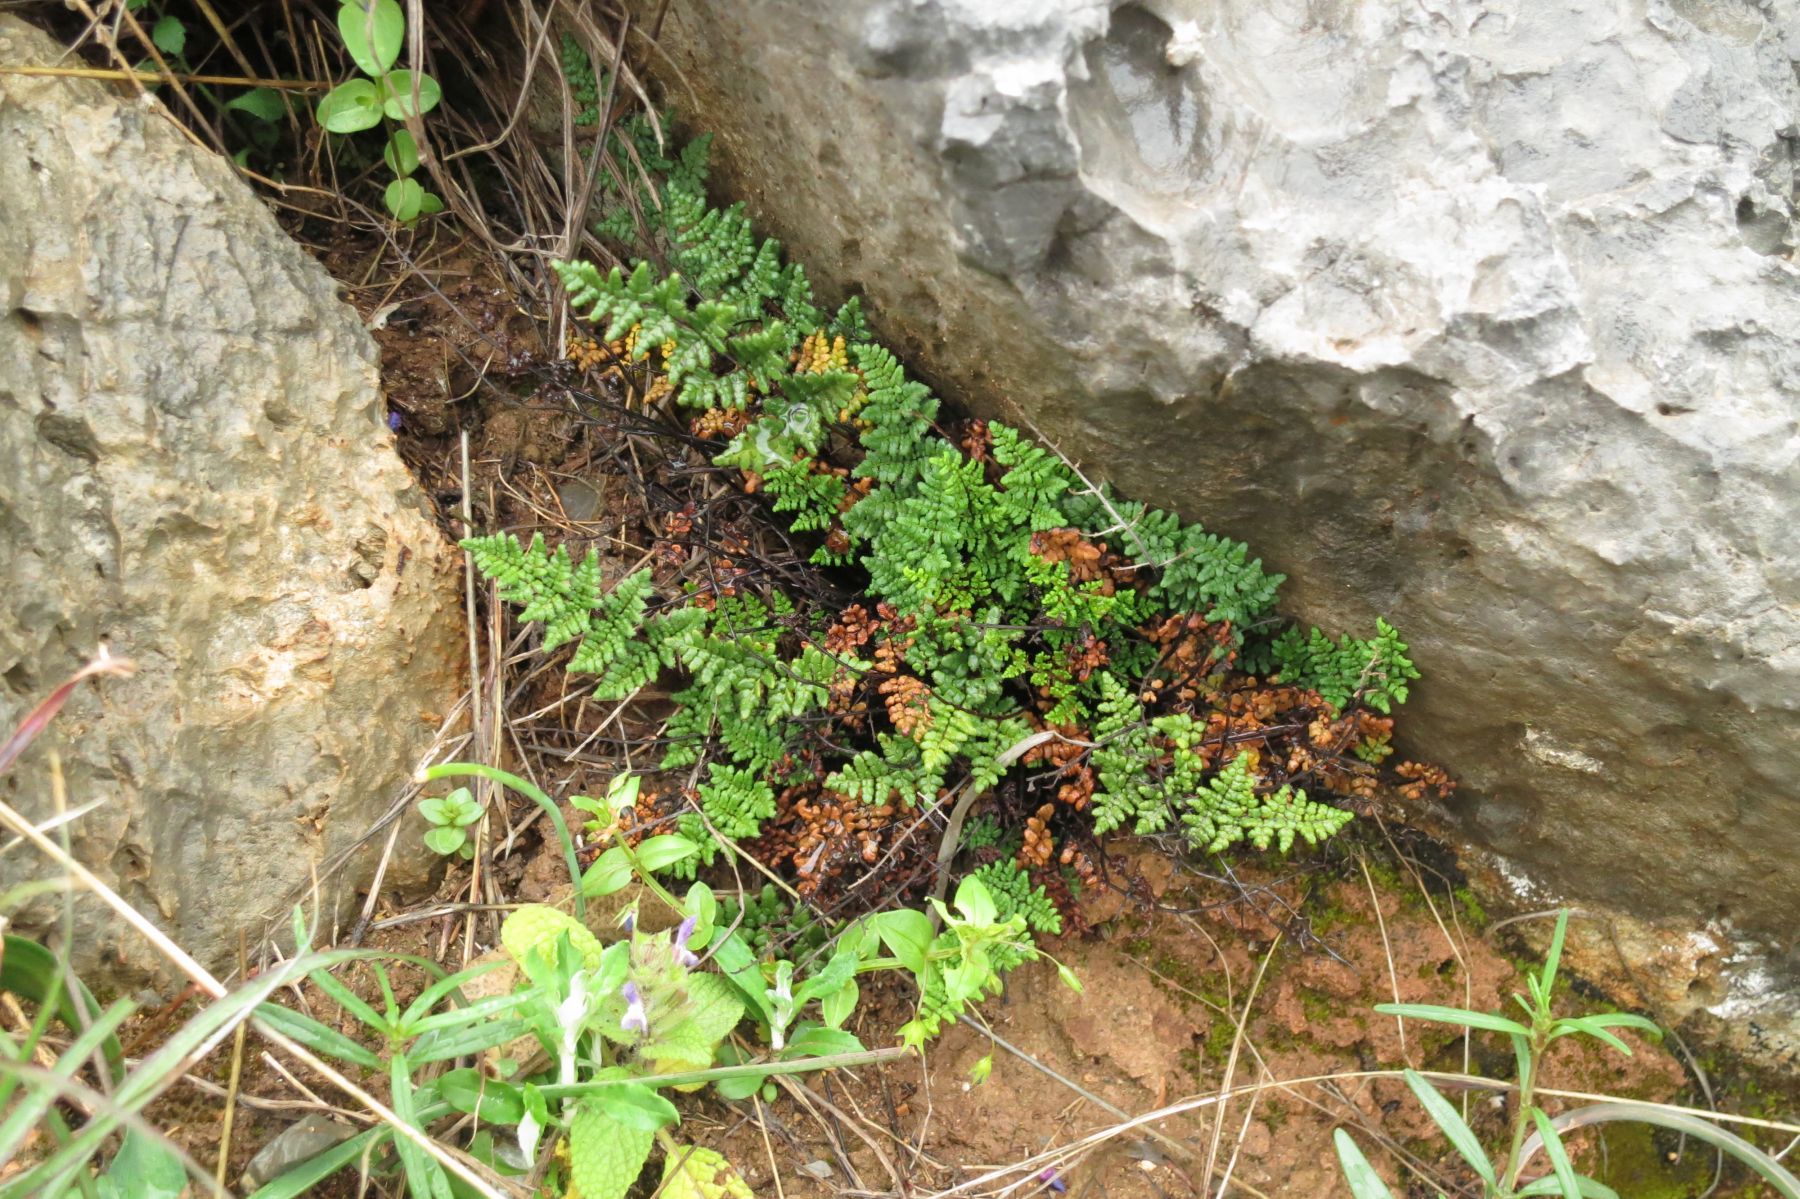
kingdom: Plantae
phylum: Tracheophyta
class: Polypodiopsida
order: Polypodiales
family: Pteridaceae
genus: Oeosporangium
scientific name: Oeosporangium pteridioides
